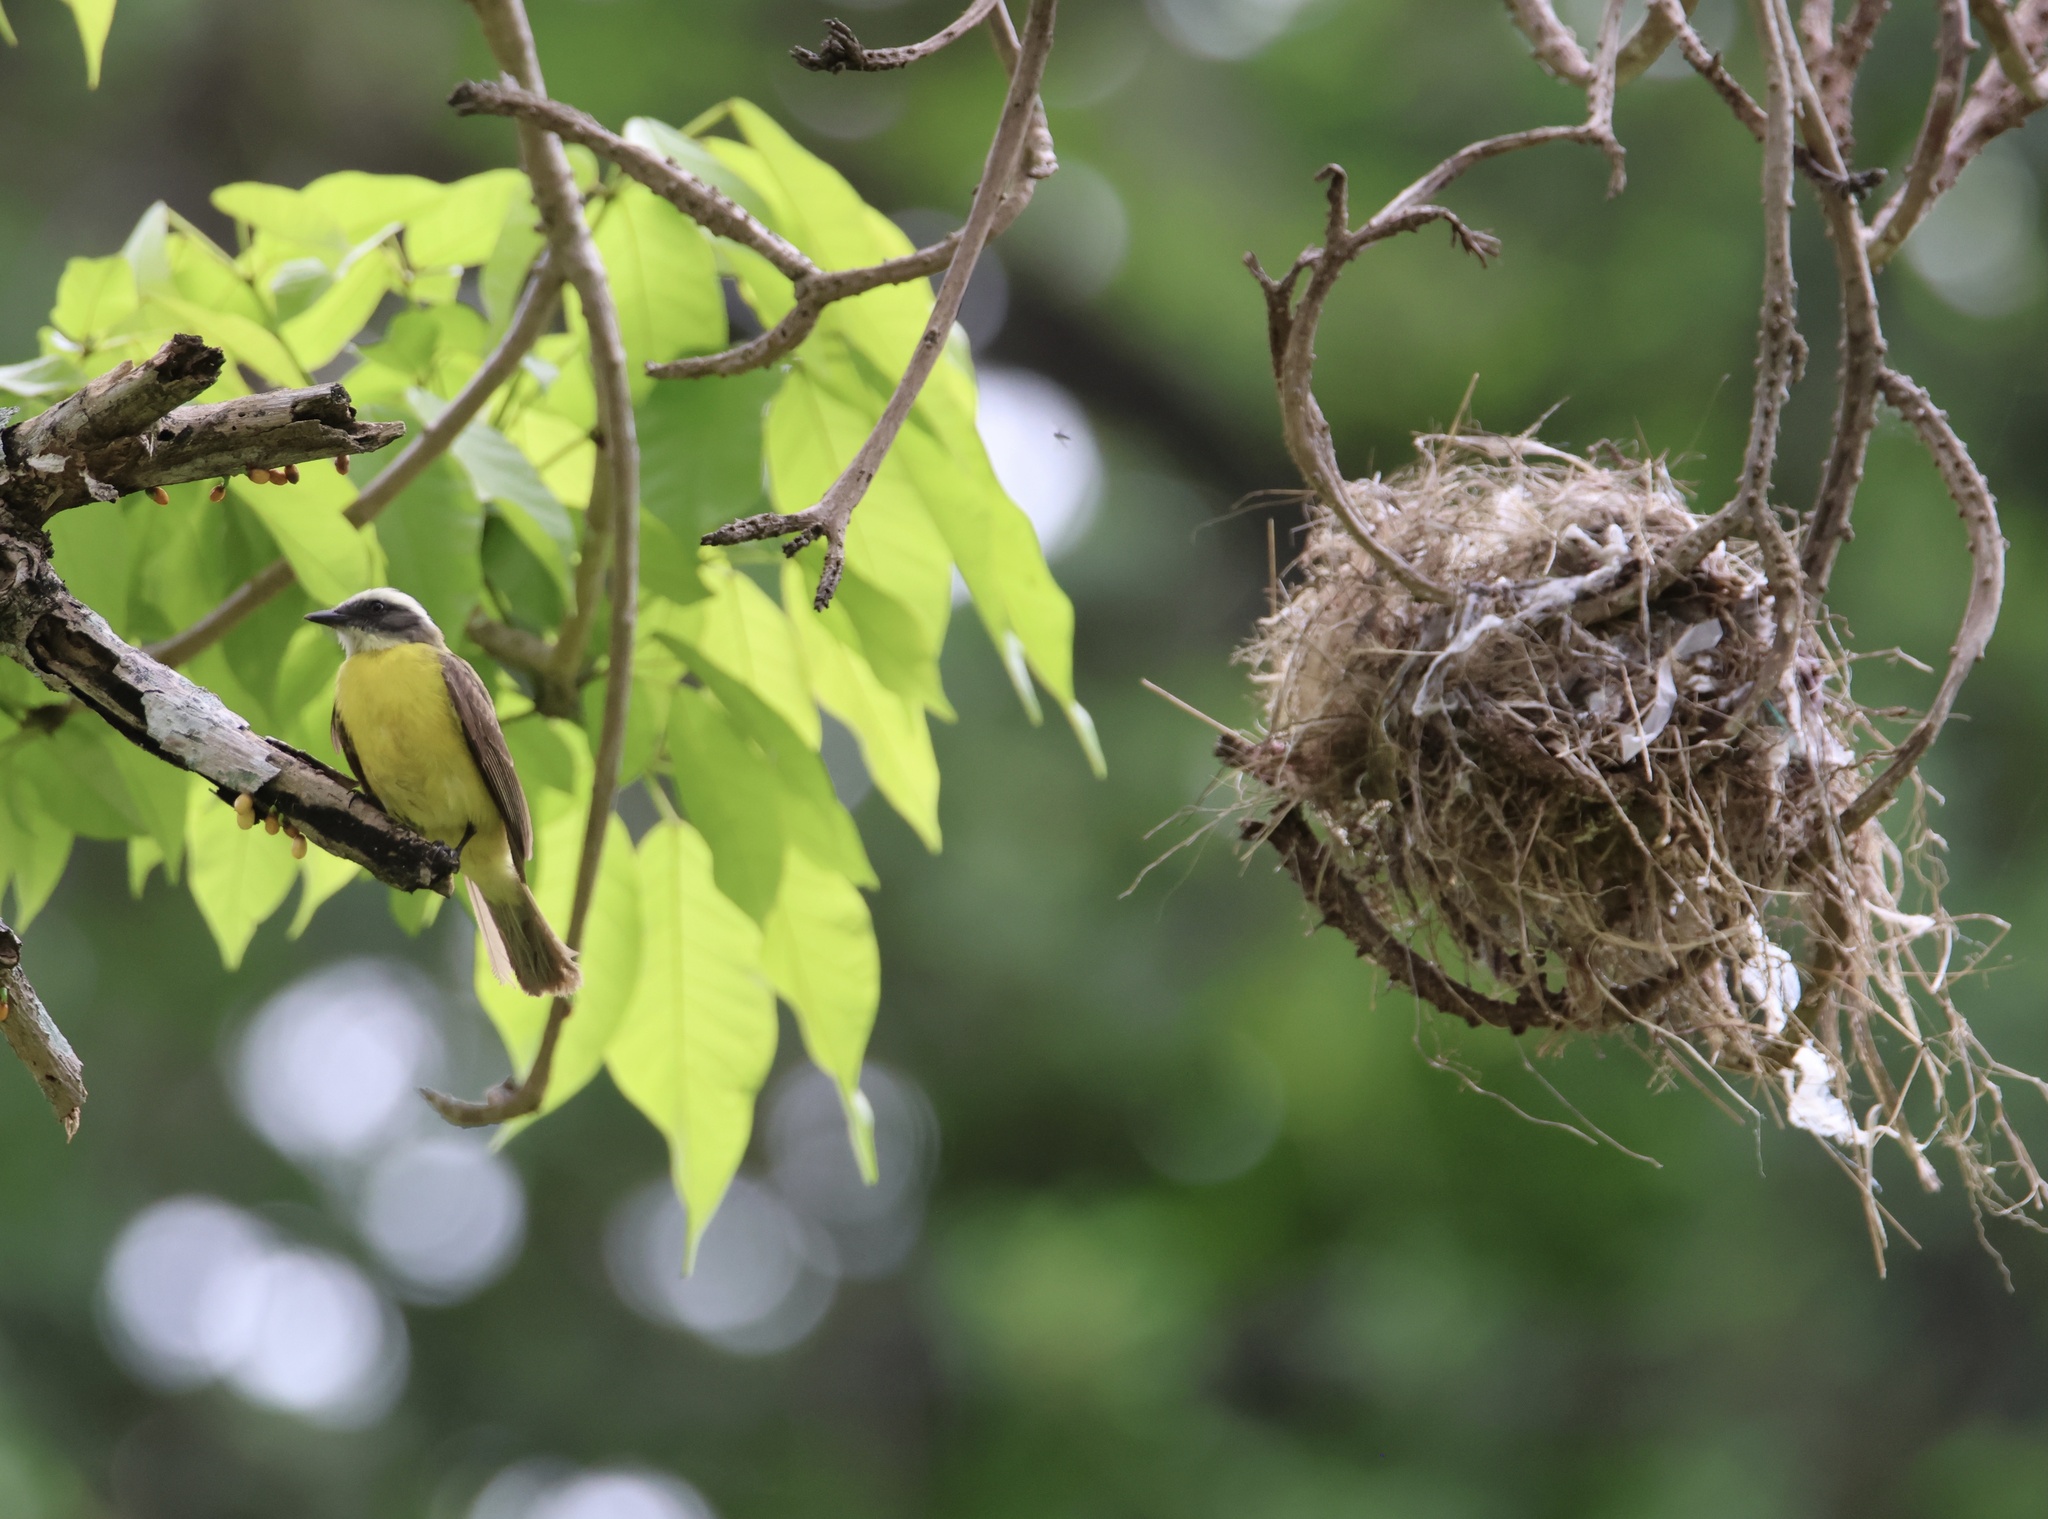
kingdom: Animalia
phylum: Chordata
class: Aves
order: Passeriformes
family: Tyrannidae
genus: Myiozetetes
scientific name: Myiozetetes similis
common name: Social flycatcher
